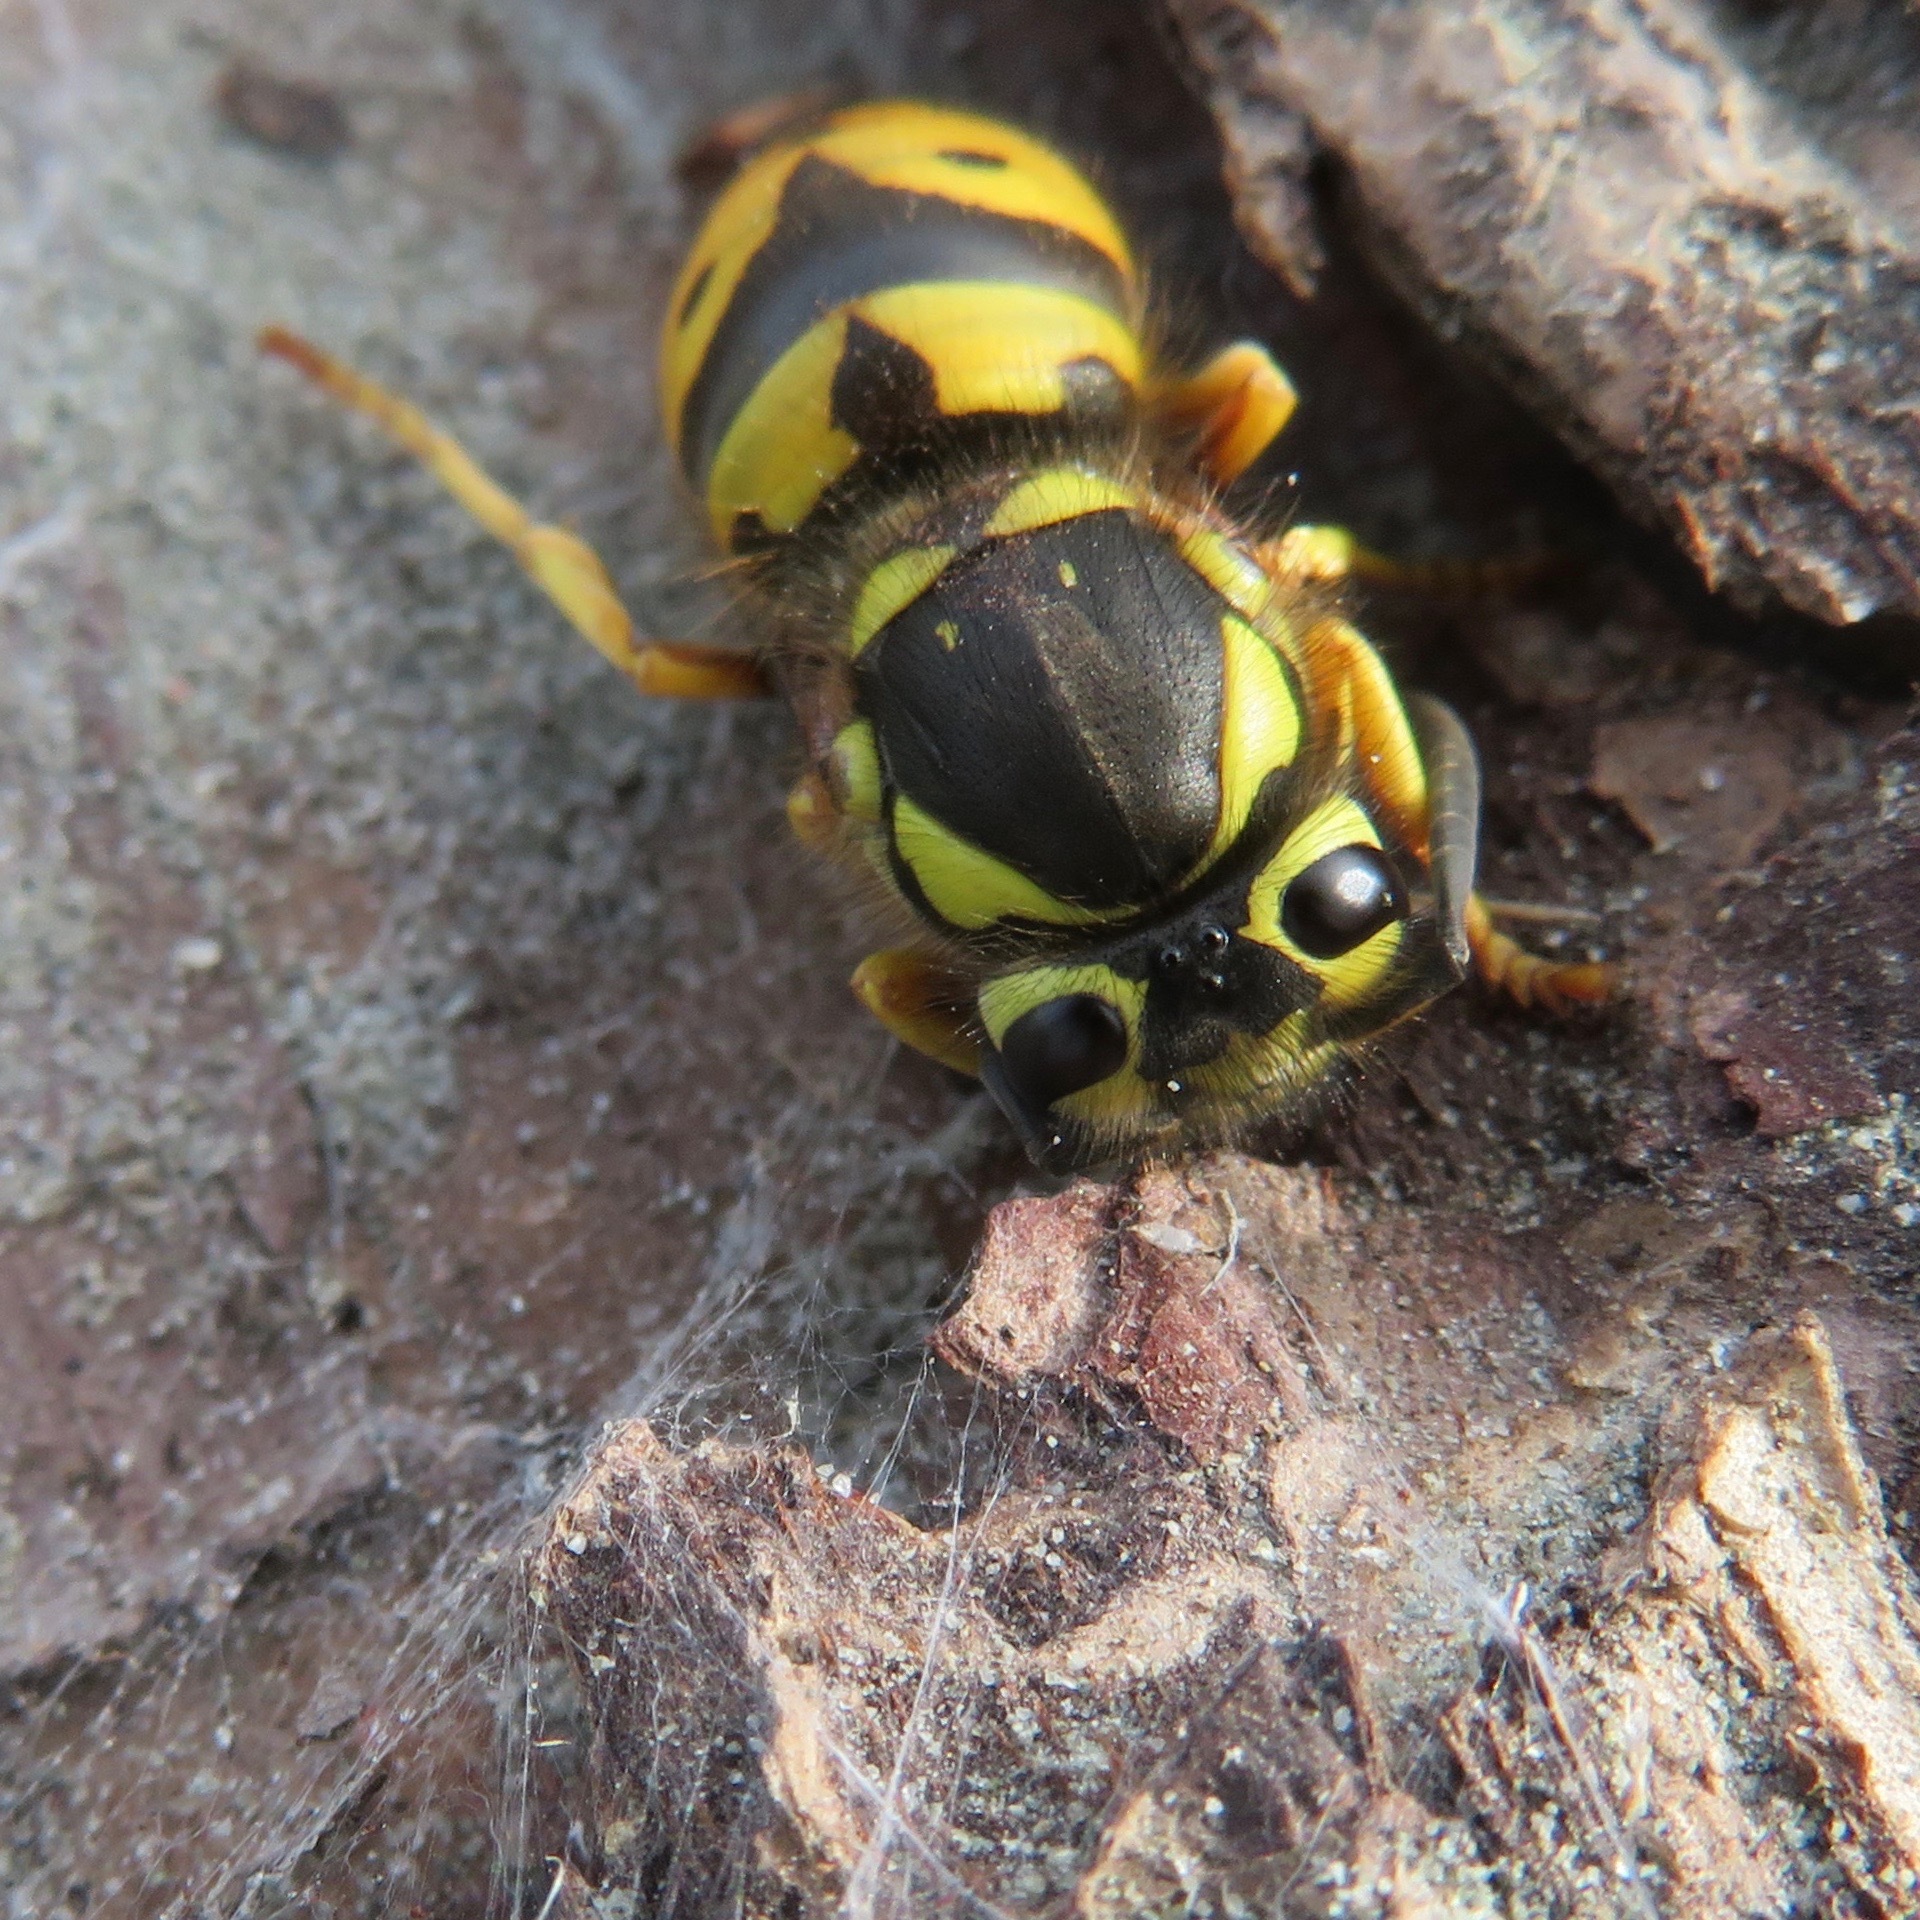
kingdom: Animalia
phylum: Arthropoda
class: Insecta
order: Hymenoptera
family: Vespidae
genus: Vespula
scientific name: Vespula pensylvanica
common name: Western yellowjacket
